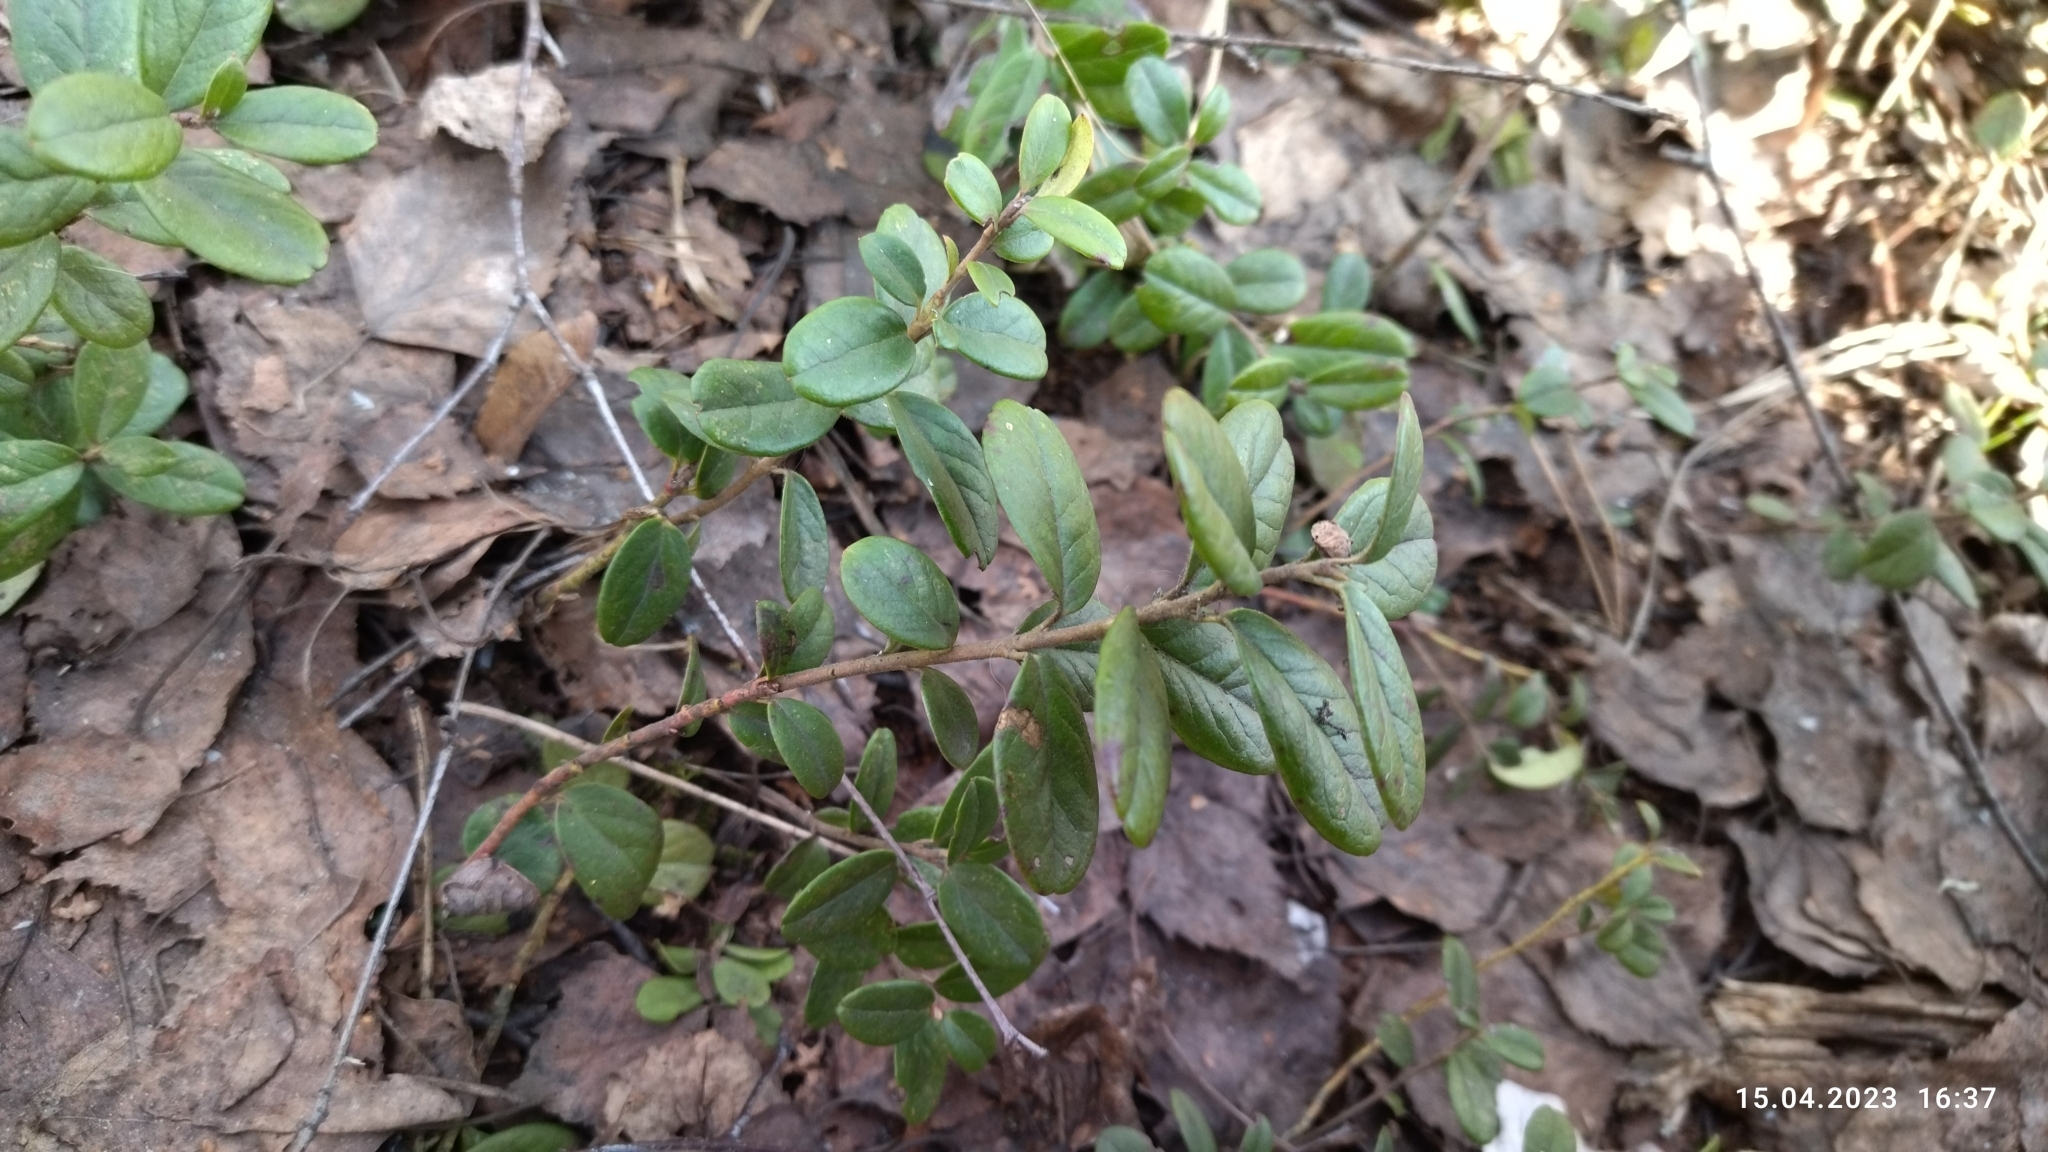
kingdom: Plantae
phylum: Tracheophyta
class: Magnoliopsida
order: Ericales
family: Ericaceae
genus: Vaccinium
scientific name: Vaccinium vitis-idaea
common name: Cowberry
